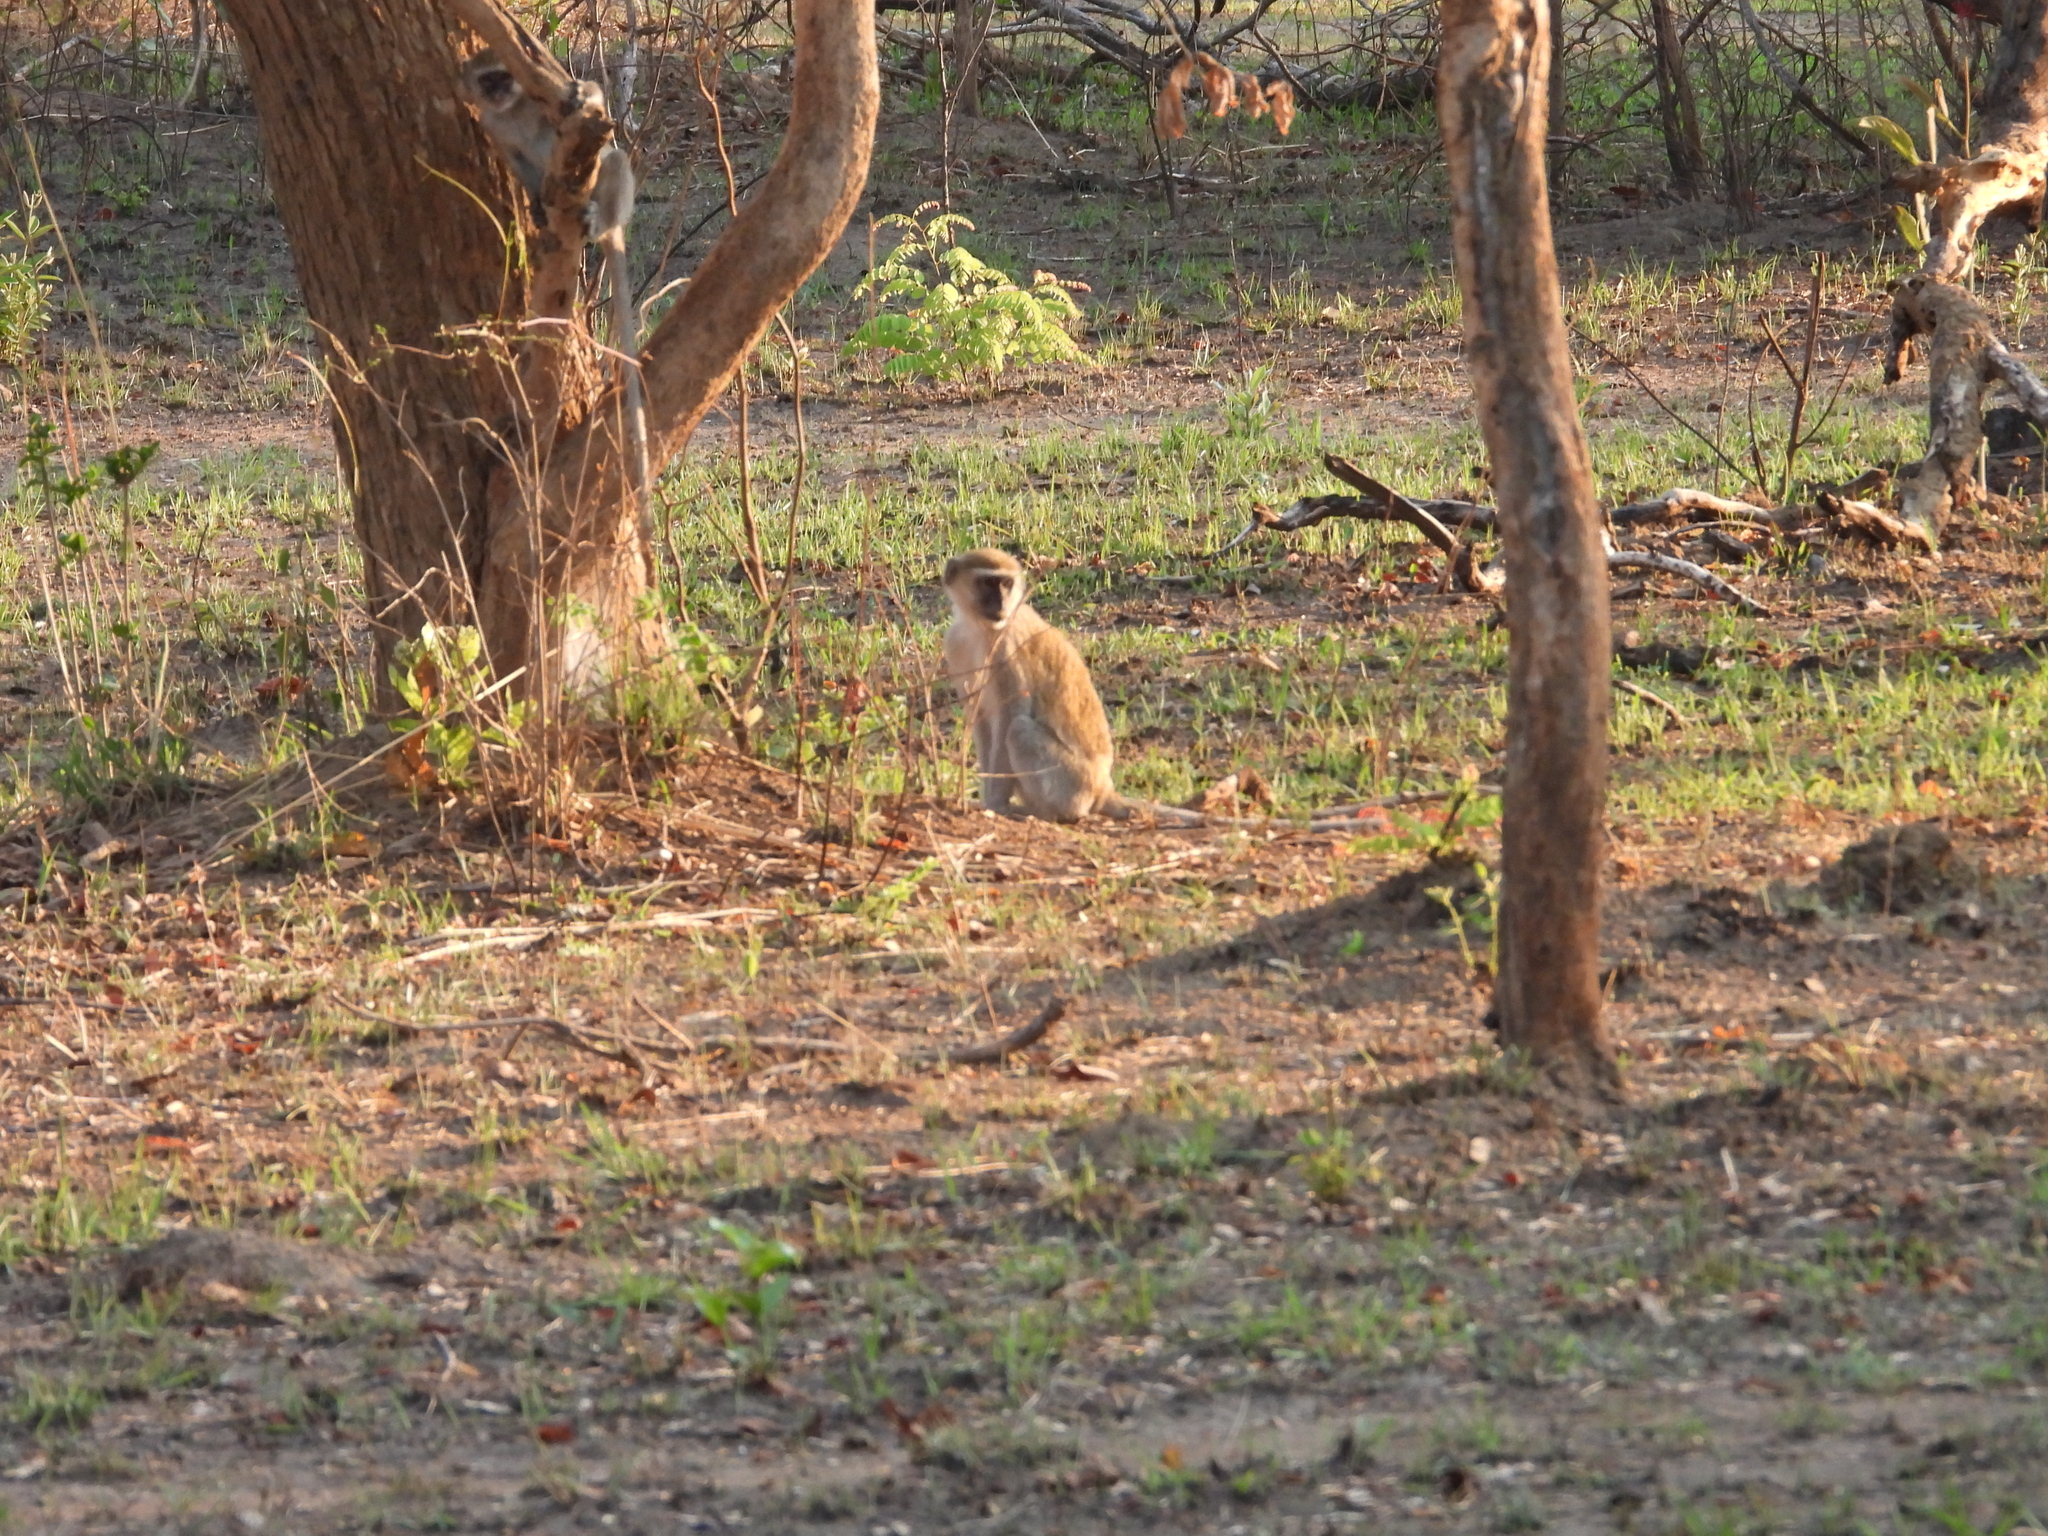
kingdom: Animalia
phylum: Chordata
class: Mammalia
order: Primates
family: Cercopithecidae
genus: Chlorocebus
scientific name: Chlorocebus cynosuros
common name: Malbrouck
